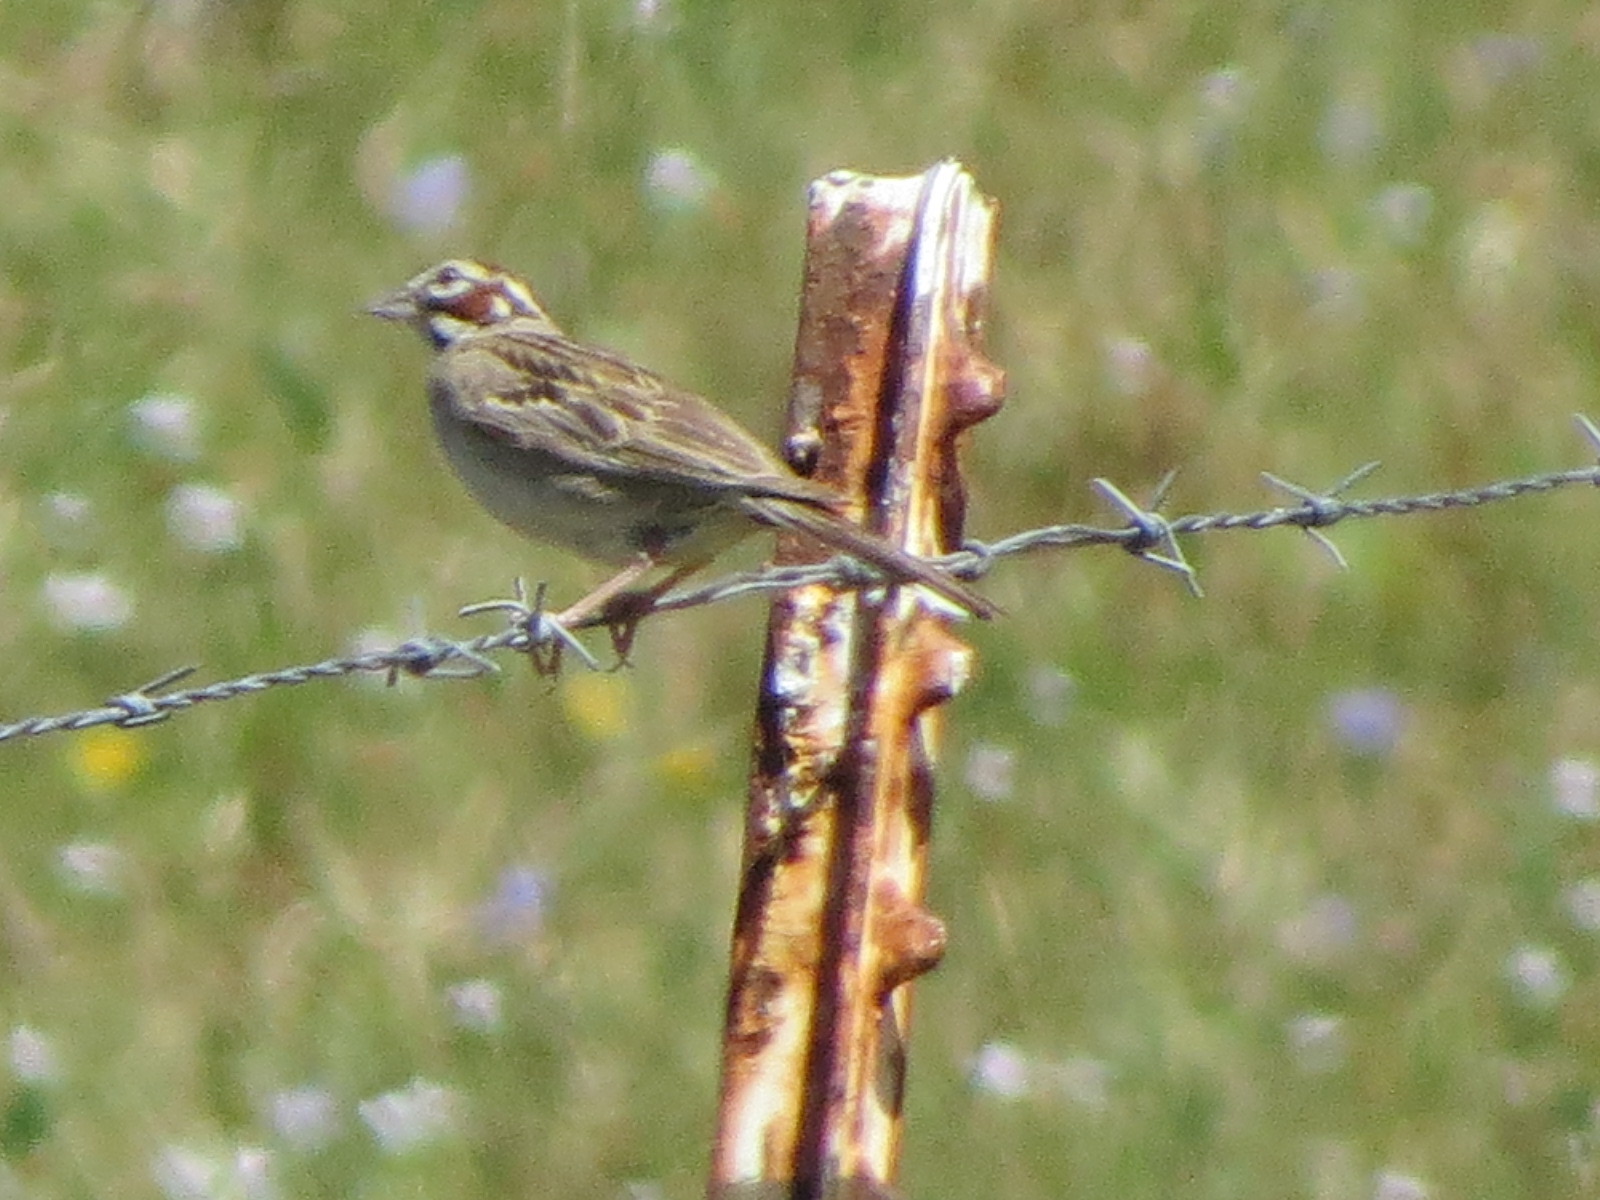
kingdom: Animalia
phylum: Chordata
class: Aves
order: Passeriformes
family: Passerellidae
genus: Chondestes
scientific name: Chondestes grammacus
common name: Lark sparrow
